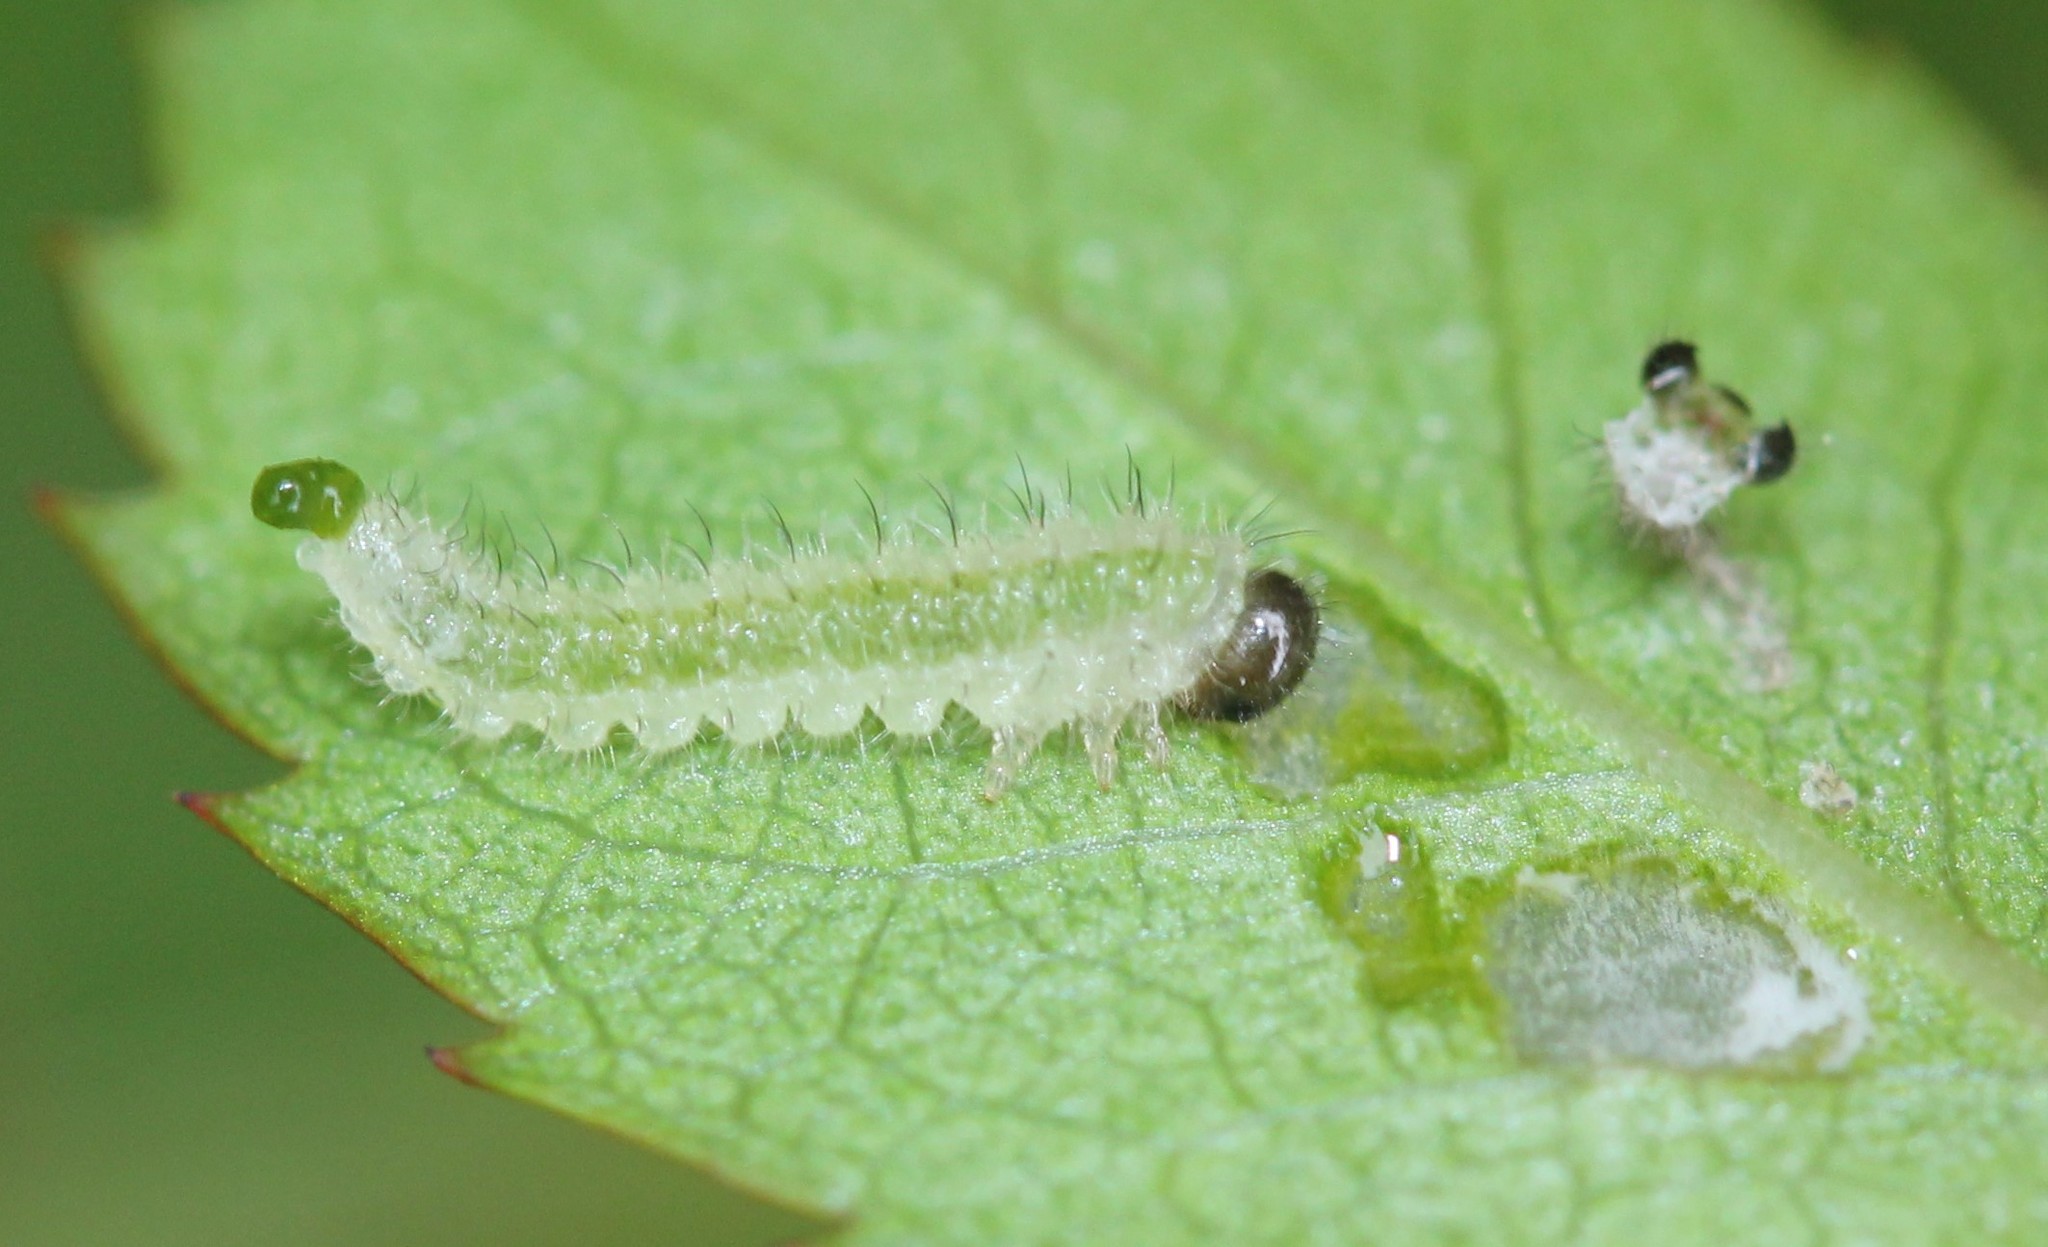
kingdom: Animalia
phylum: Arthropoda
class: Insecta
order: Hymenoptera
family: Tenthredinidae
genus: Cladius
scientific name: Cladius pectinicornis
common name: Sawfly
